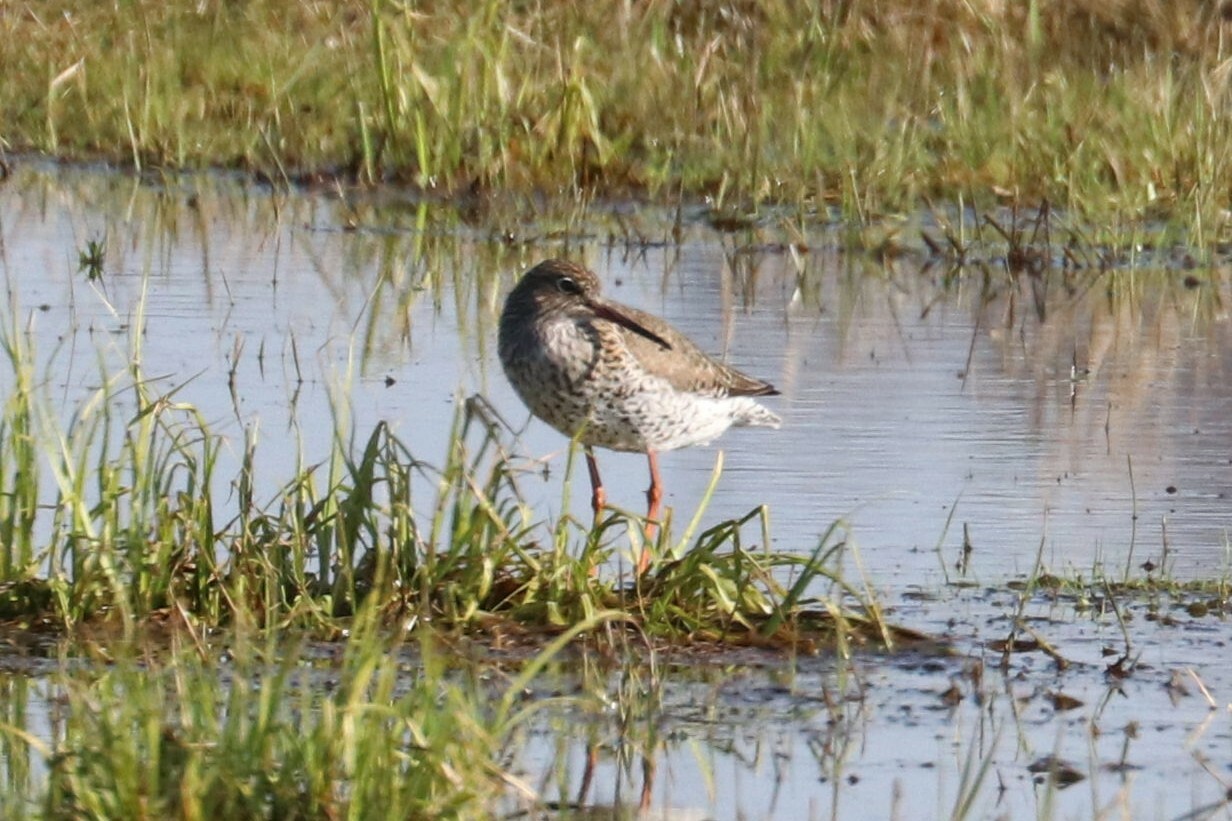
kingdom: Animalia
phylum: Chordata
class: Aves
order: Charadriiformes
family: Scolopacidae
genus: Tringa
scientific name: Tringa totanus
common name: Common redshank
